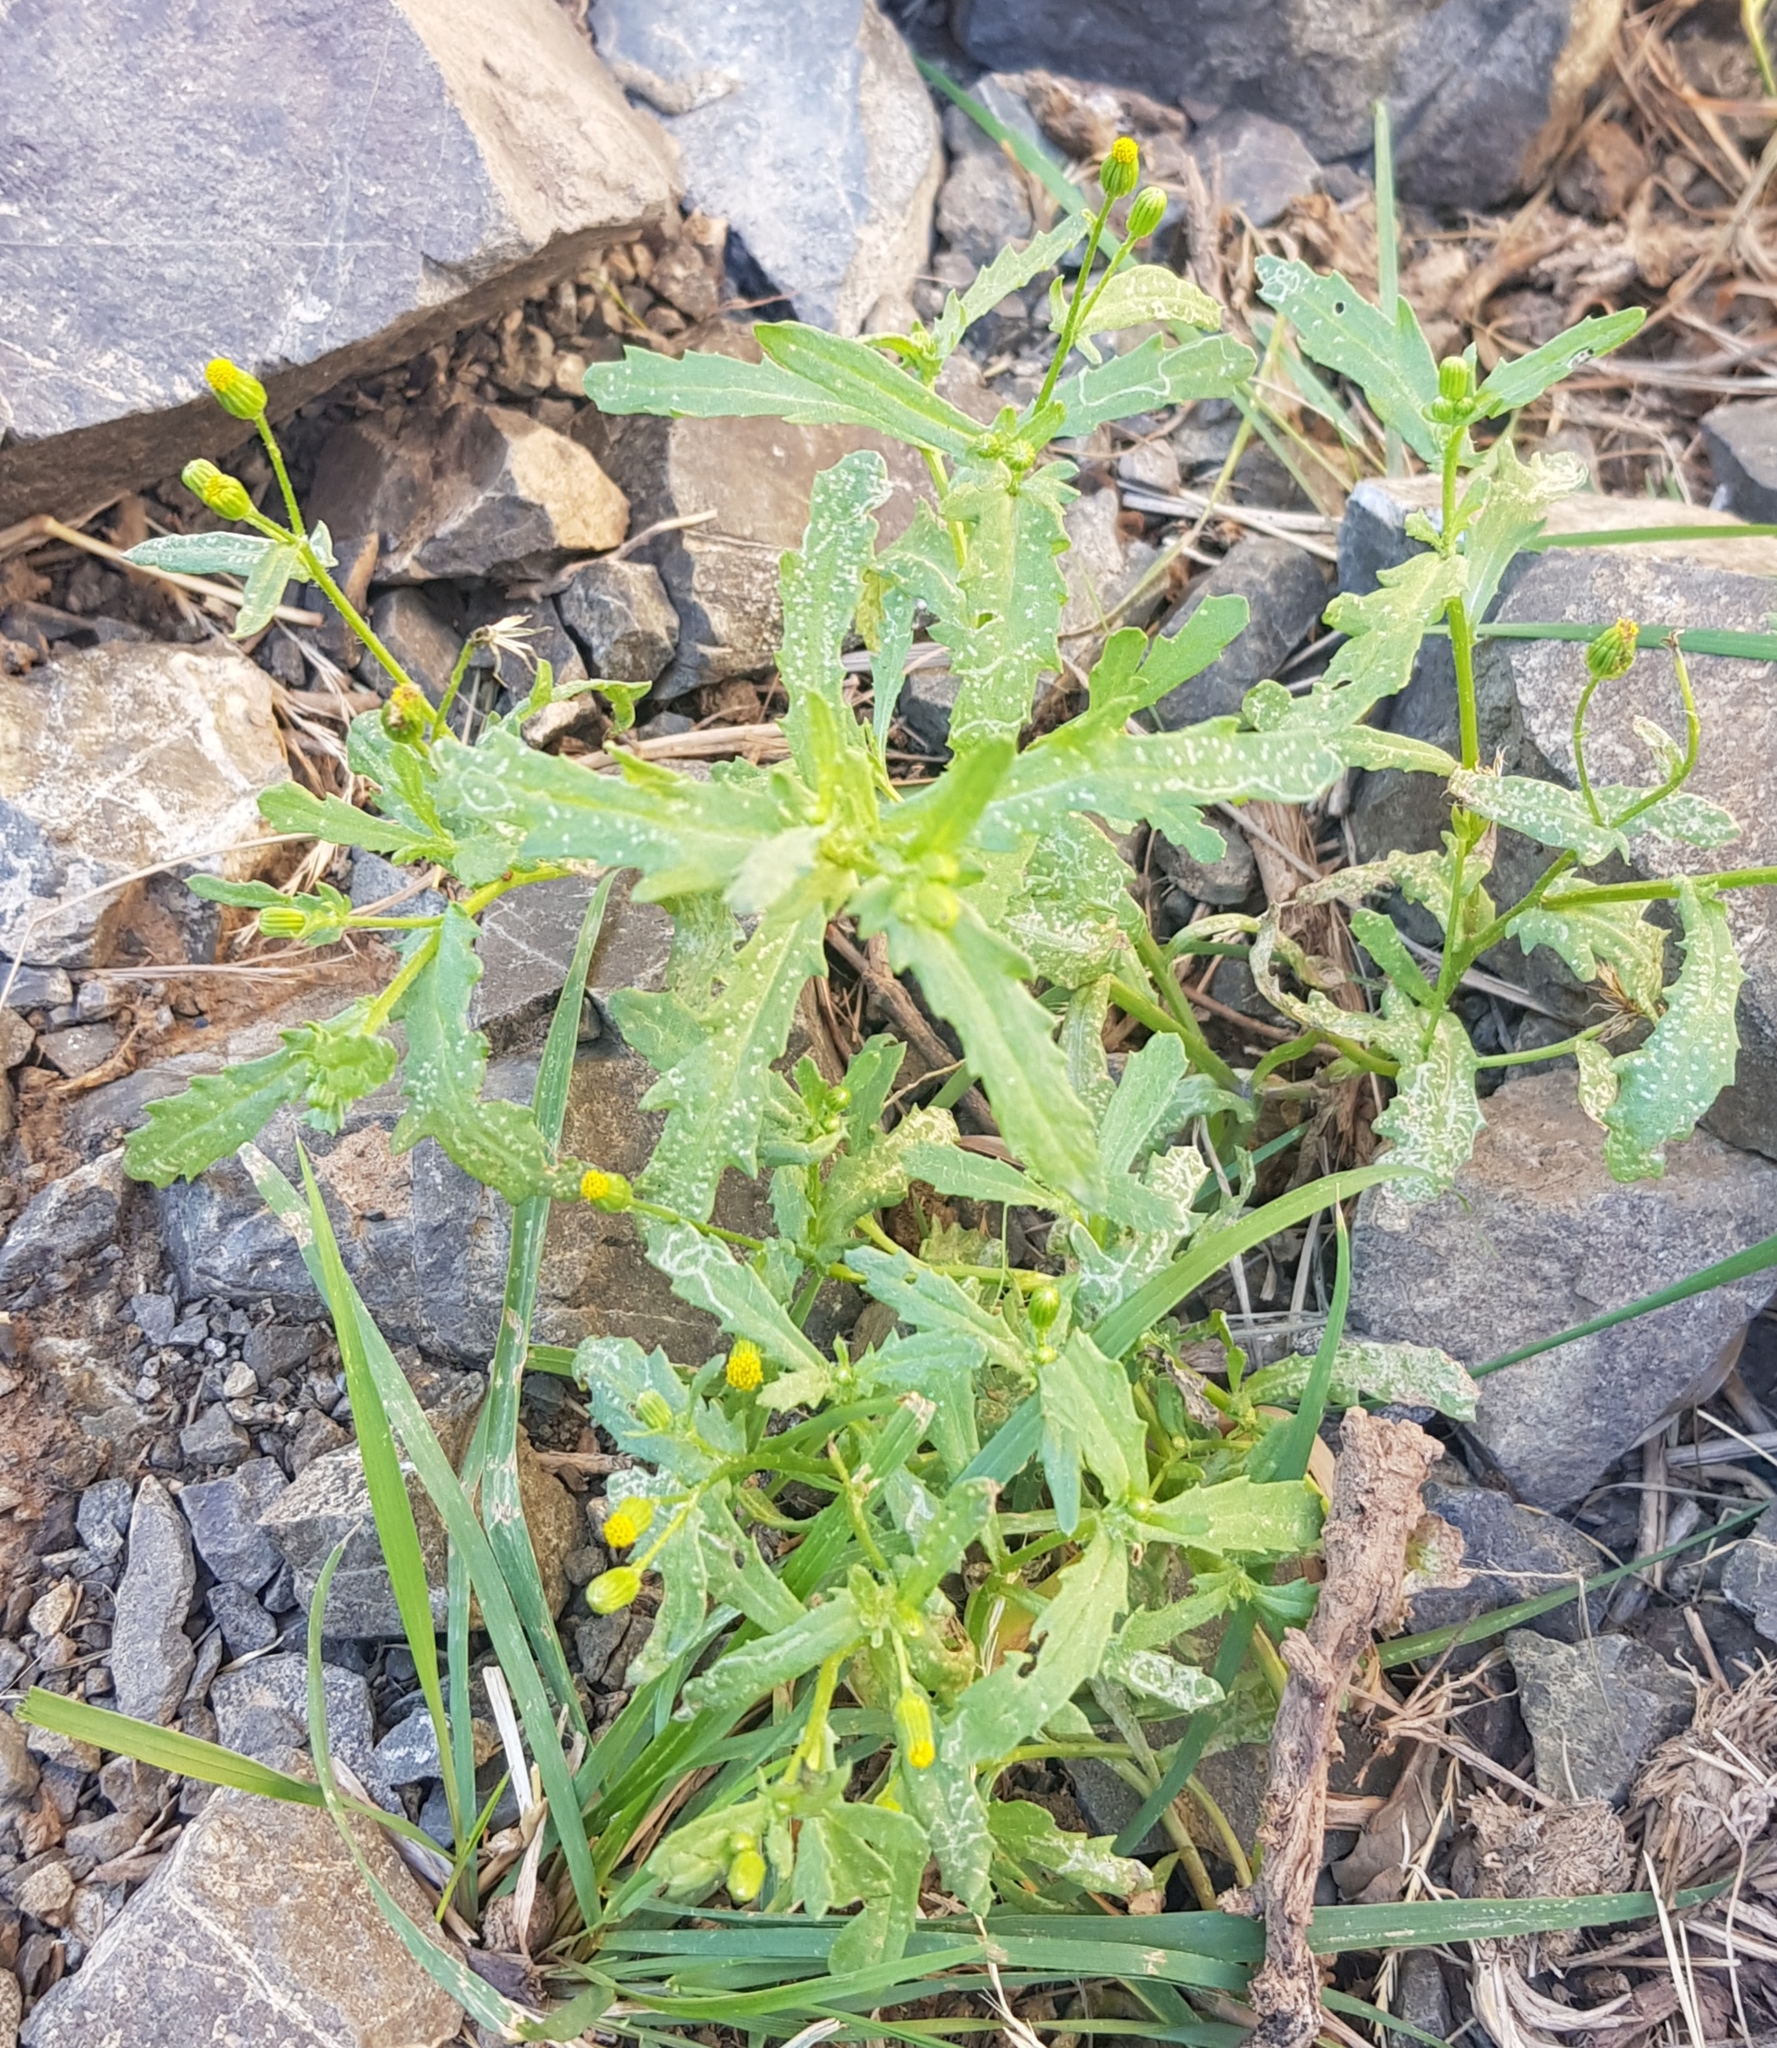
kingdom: Plantae
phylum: Tracheophyta
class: Magnoliopsida
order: Asterales
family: Asteraceae
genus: Senecio
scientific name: Senecio dubitabilis
